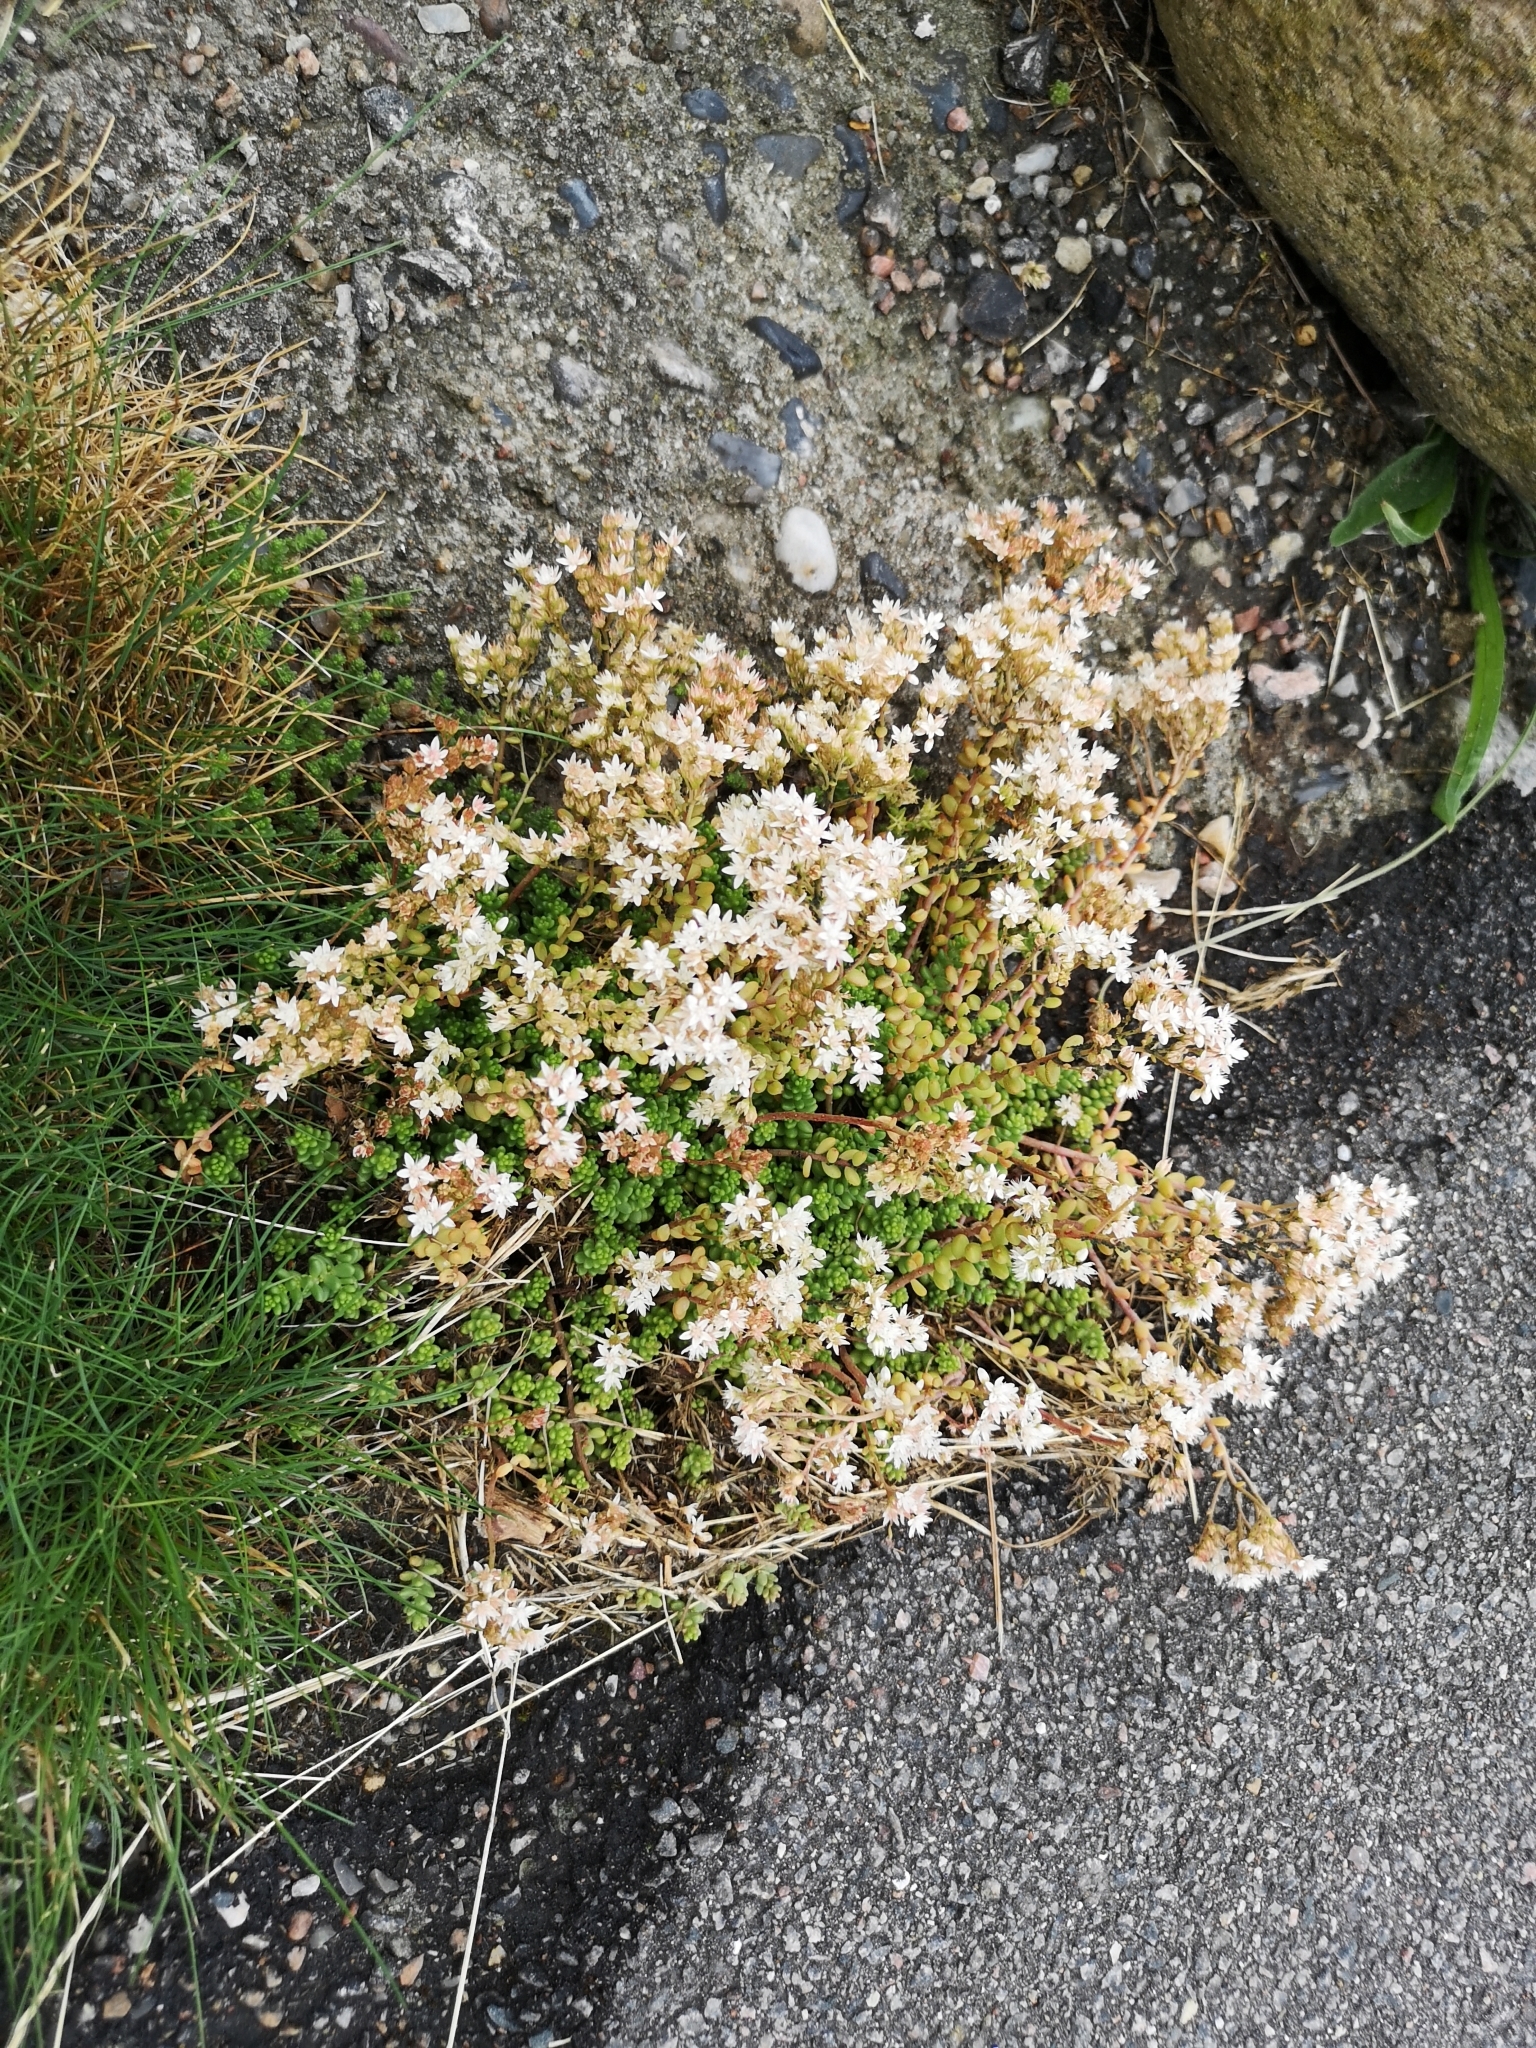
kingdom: Plantae
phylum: Tracheophyta
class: Magnoliopsida
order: Saxifragales
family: Crassulaceae
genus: Sedum
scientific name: Sedum album
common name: White stonecrop
